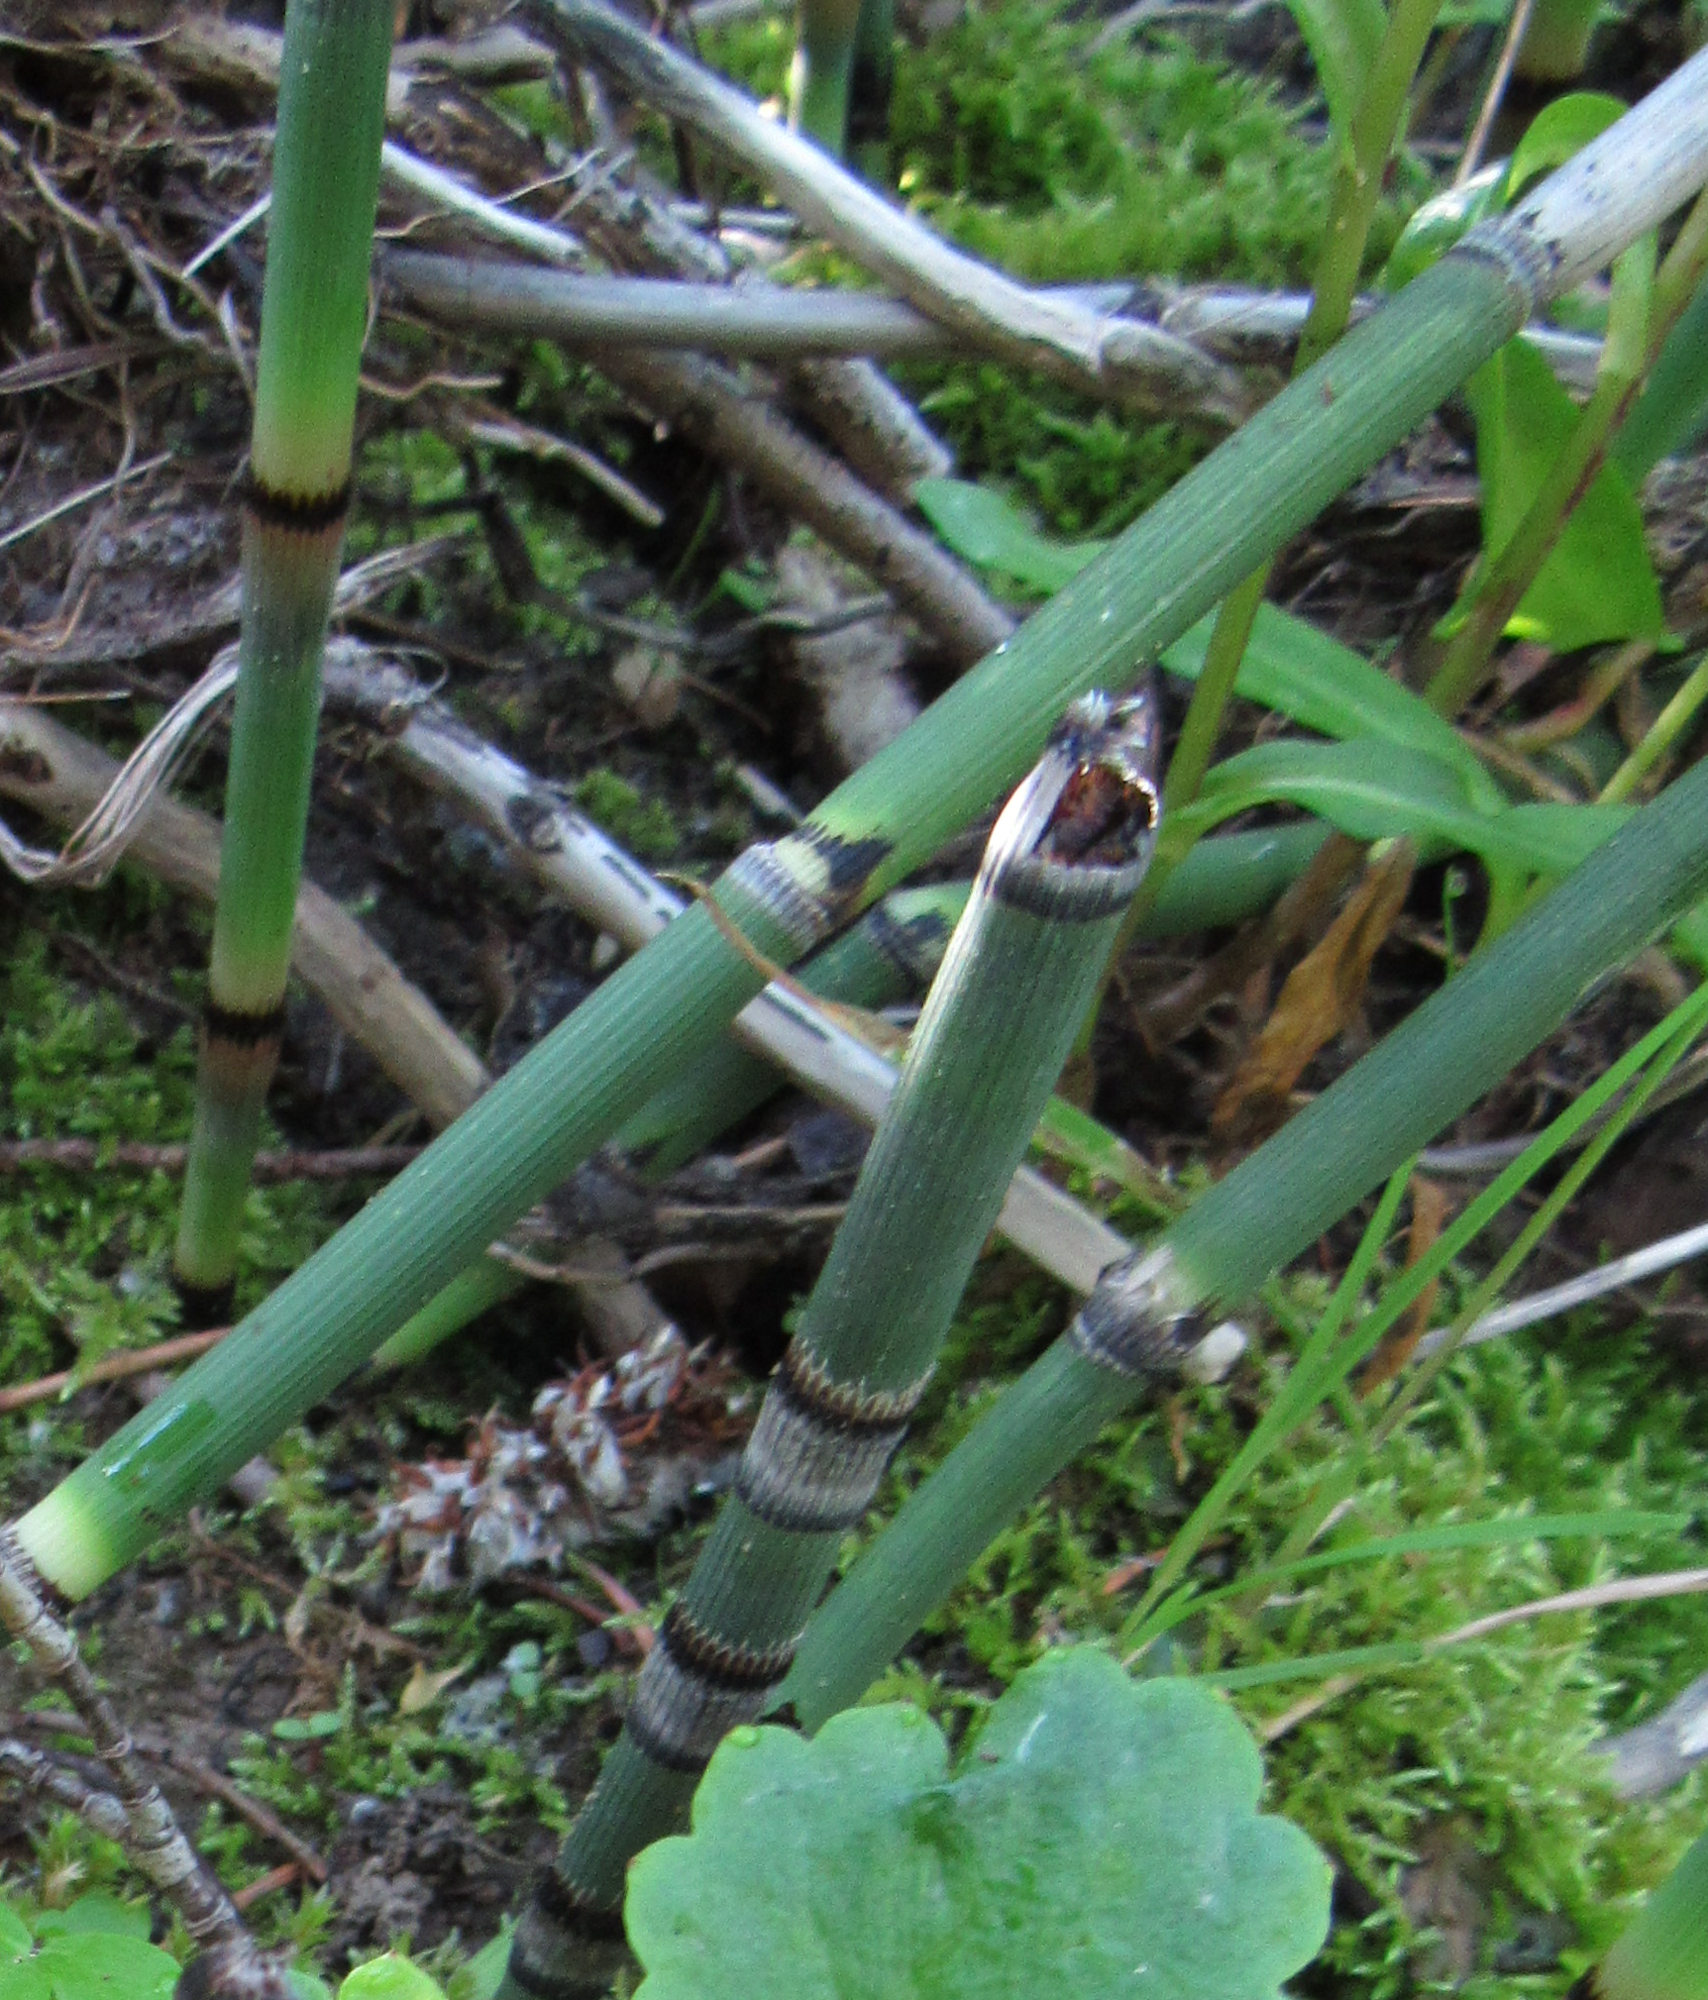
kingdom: Plantae
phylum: Tracheophyta
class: Polypodiopsida
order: Equisetales
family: Equisetaceae
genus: Equisetum
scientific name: Equisetum praealtum
